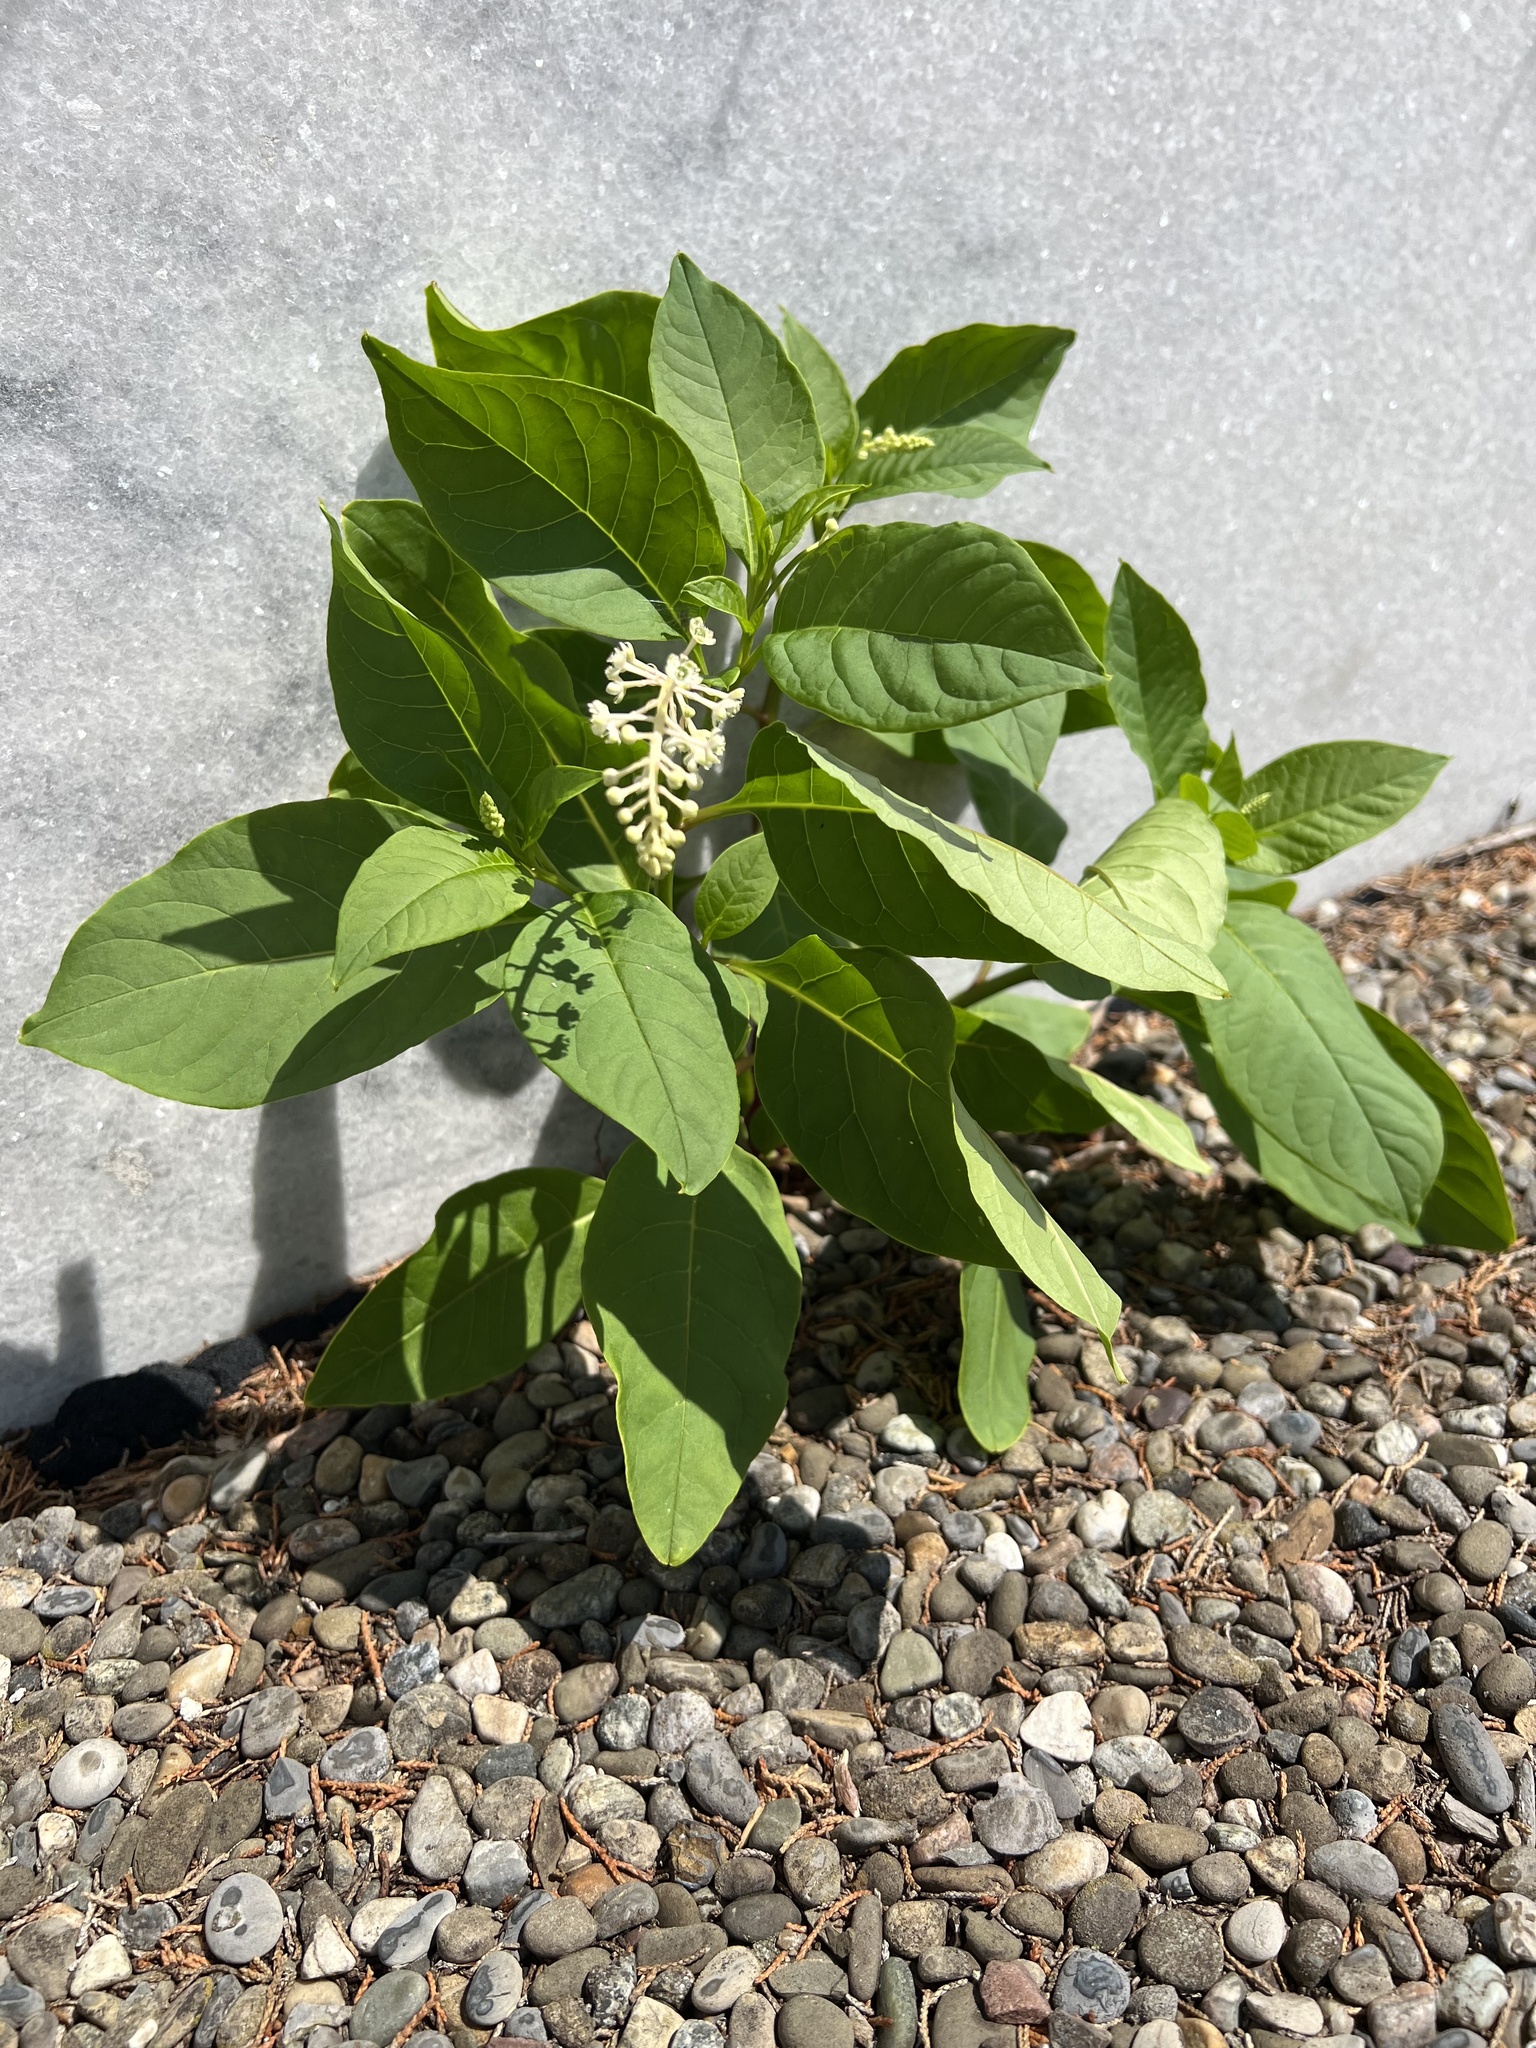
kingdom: Plantae
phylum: Tracheophyta
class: Magnoliopsida
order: Caryophyllales
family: Phytolaccaceae
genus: Phytolacca
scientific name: Phytolacca americana
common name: American pokeweed
